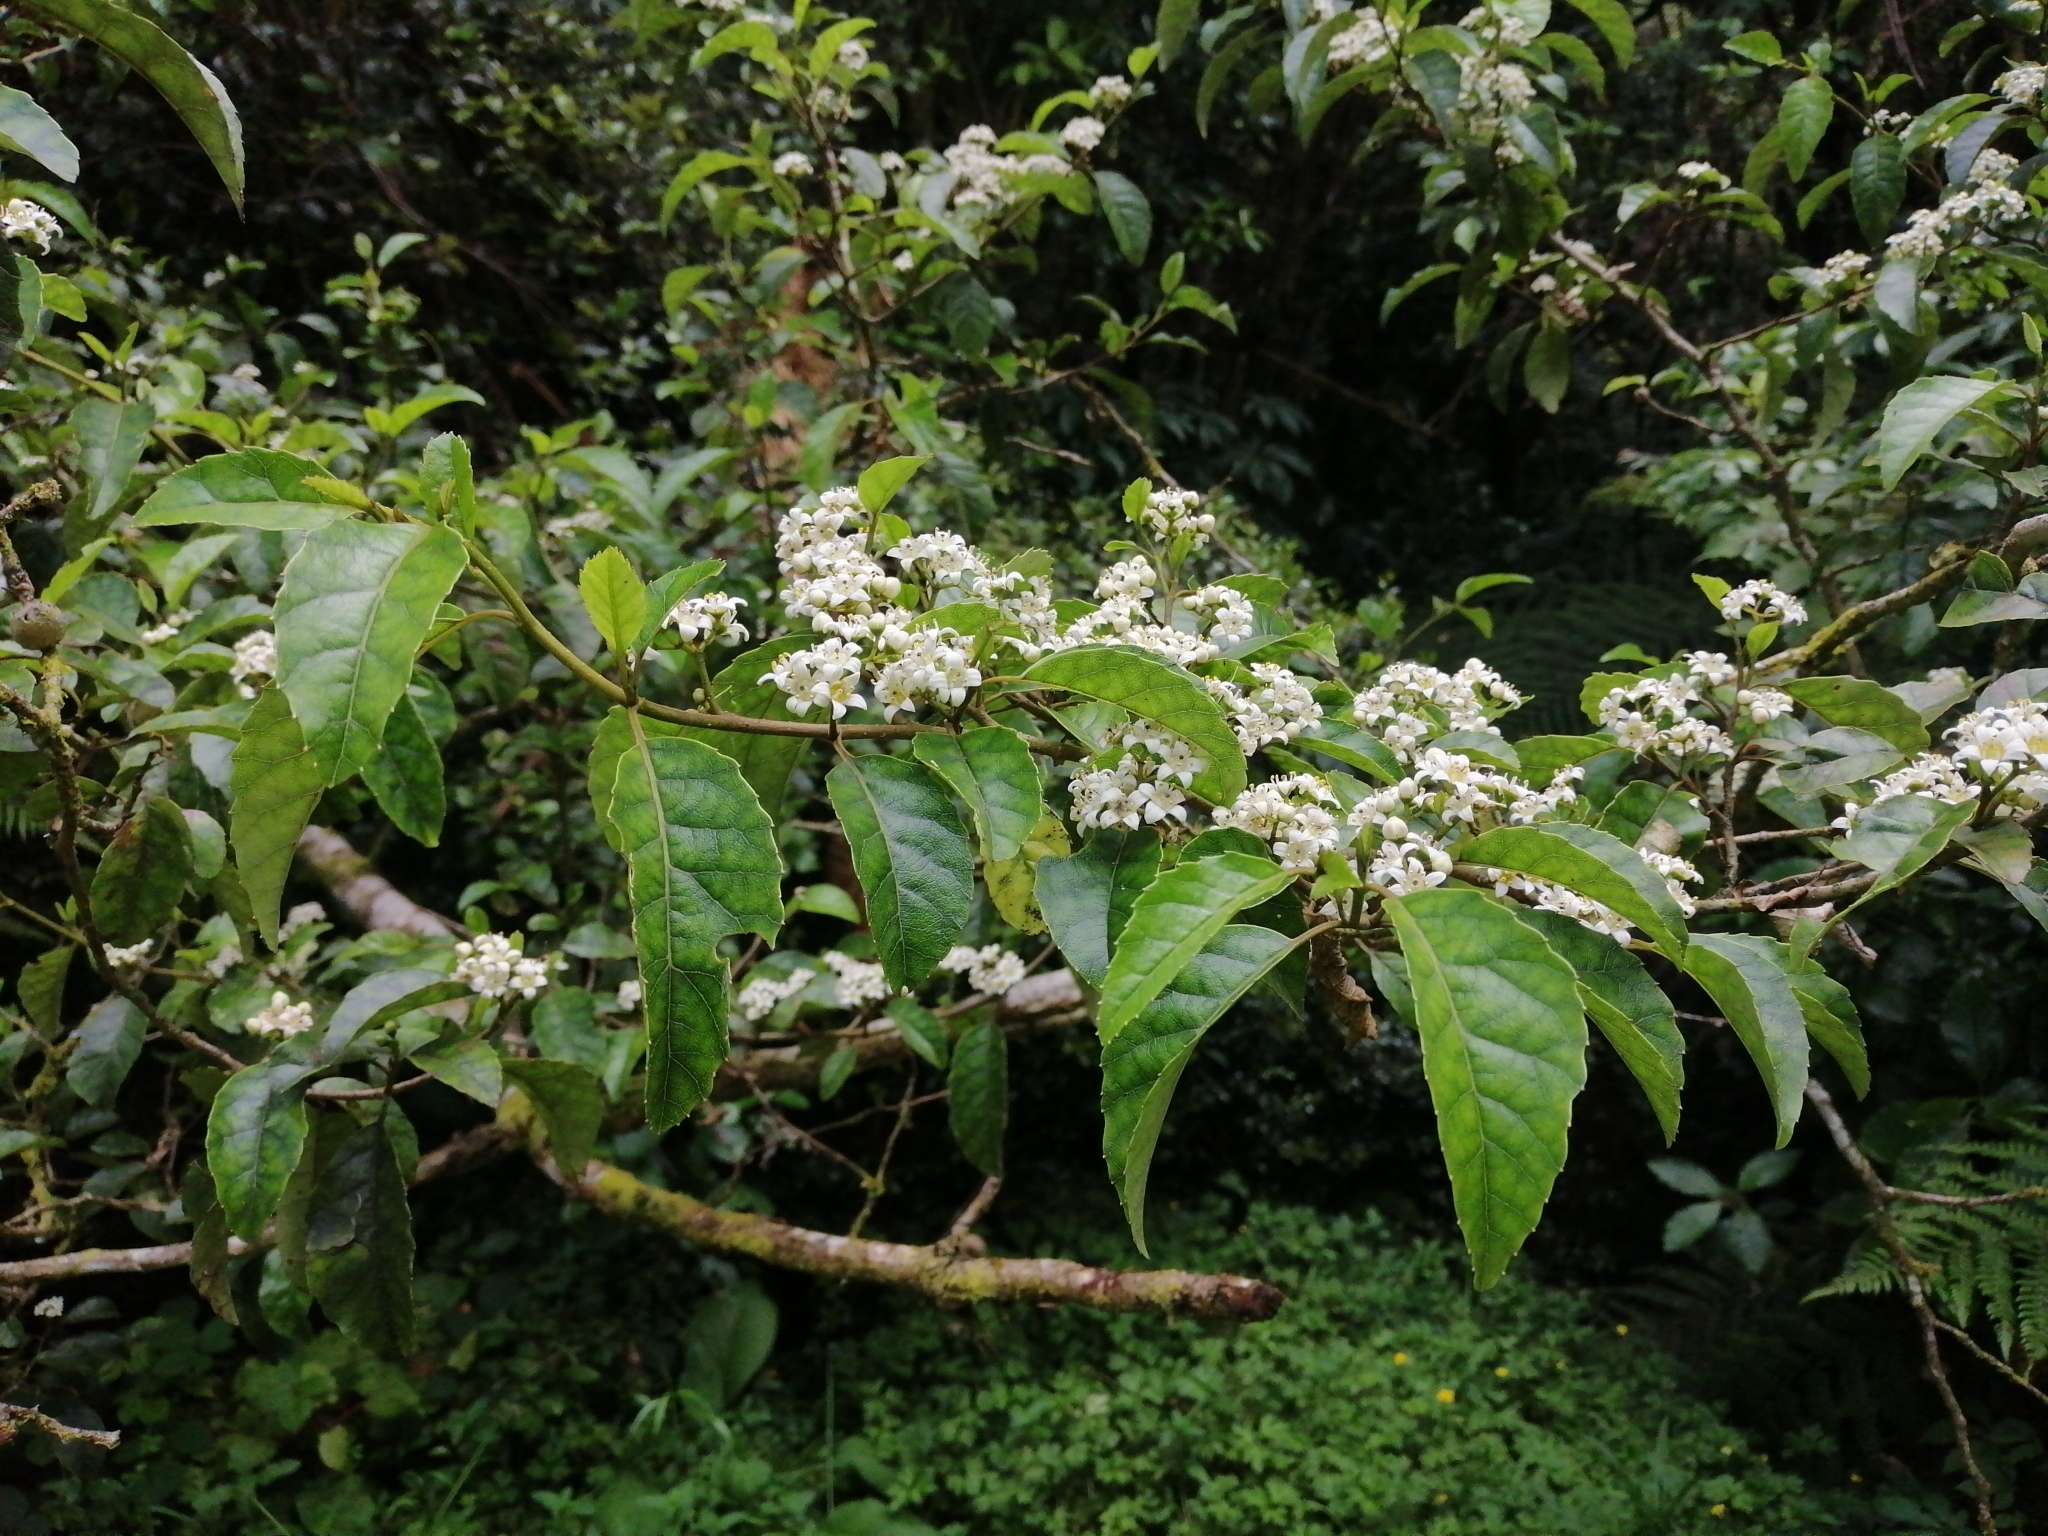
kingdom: Plantae
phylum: Tracheophyta
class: Magnoliopsida
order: Asterales
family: Rousseaceae
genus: Carpodetus
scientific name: Carpodetus serratus
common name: White mapau
